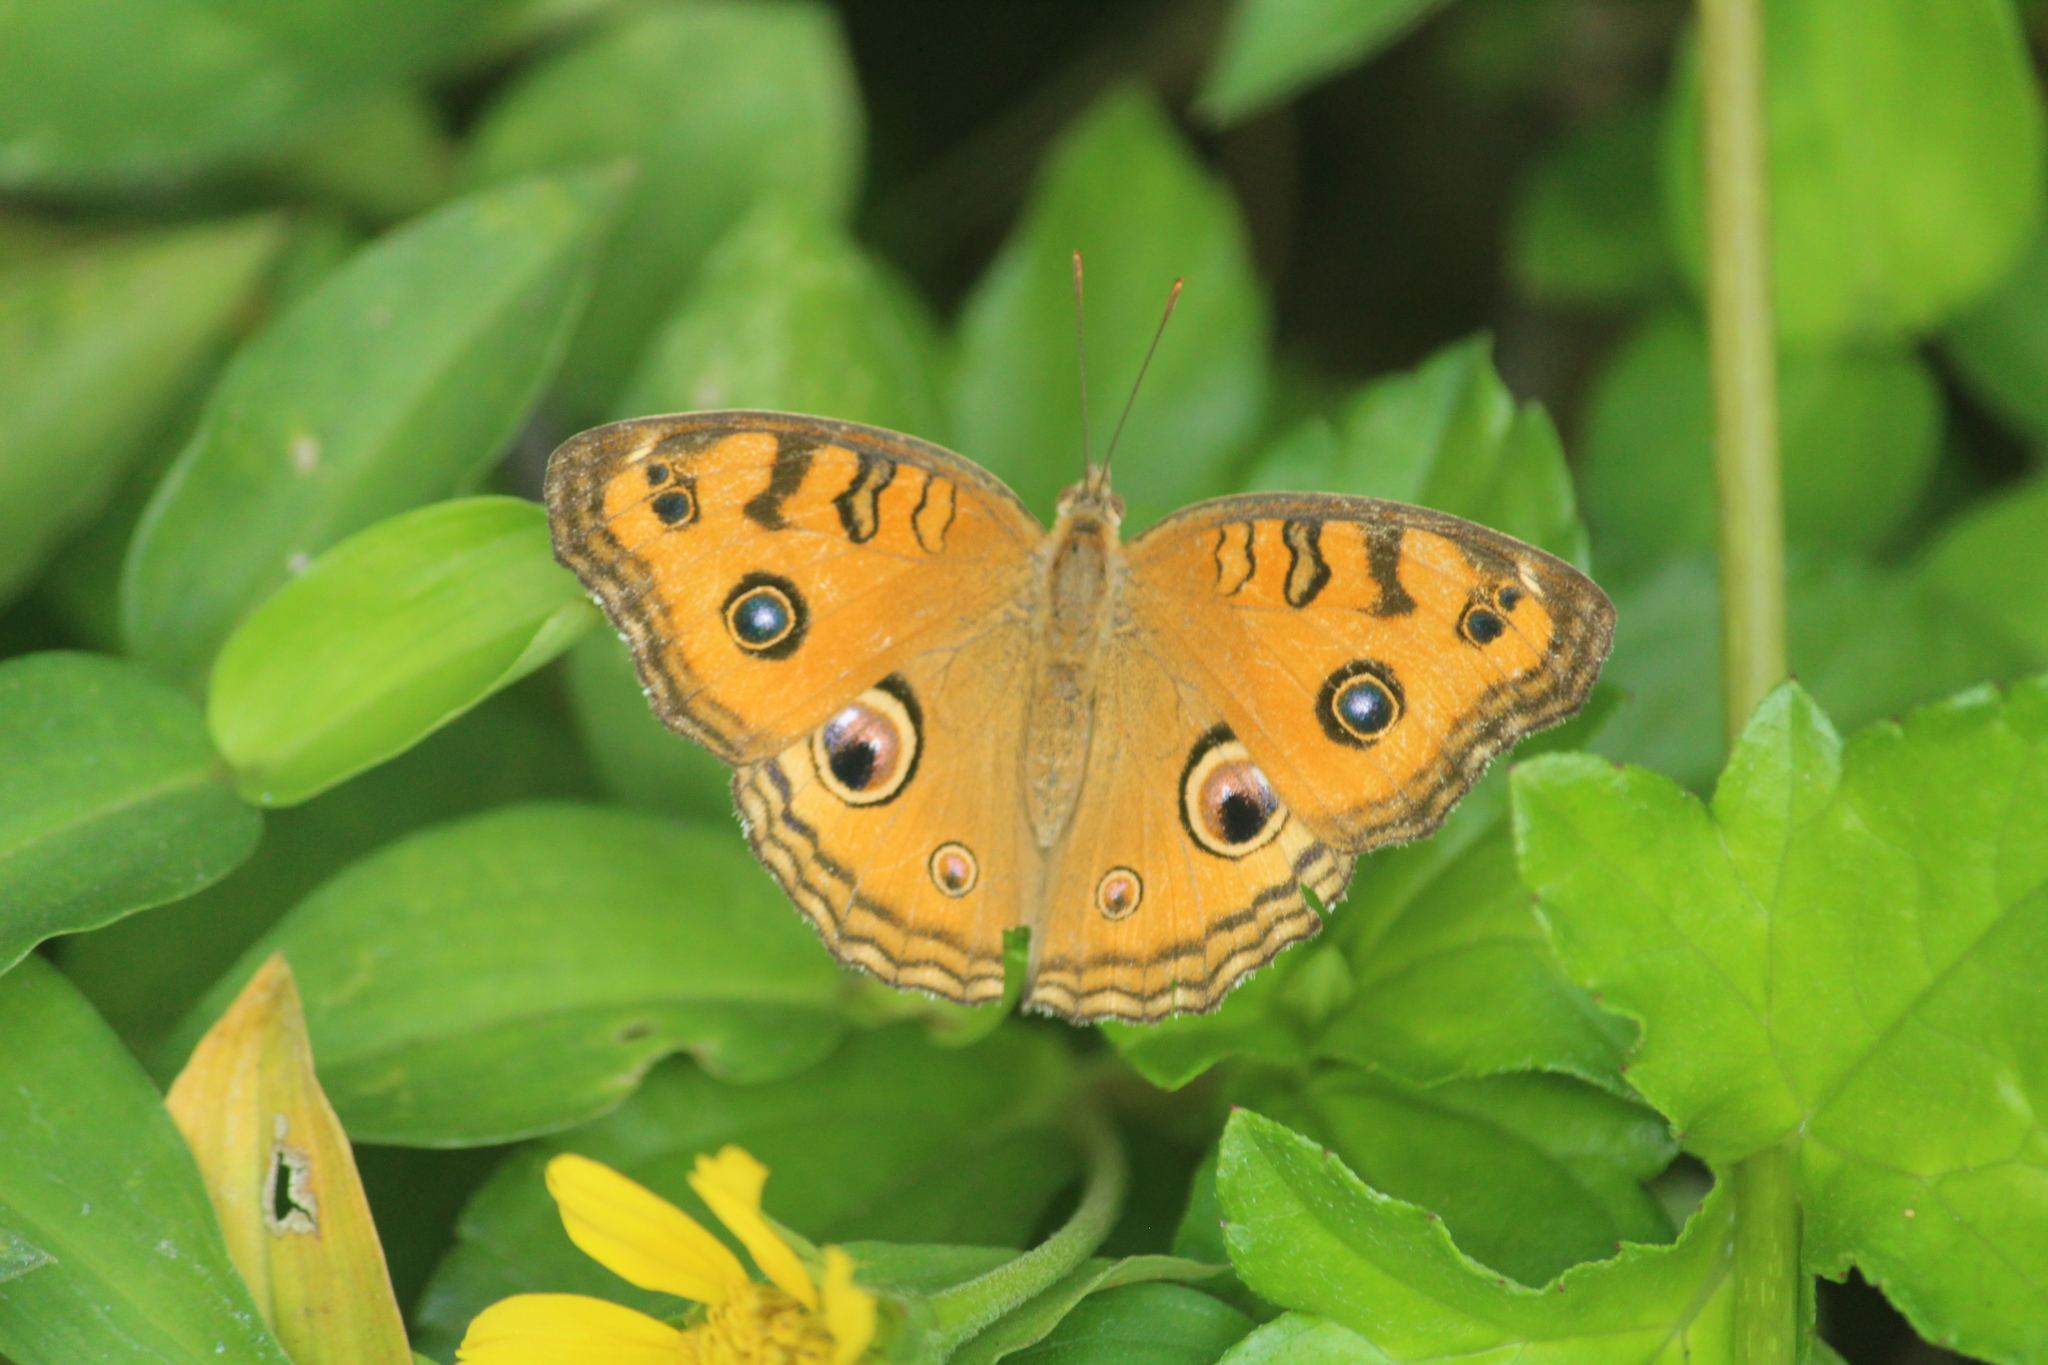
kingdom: Animalia
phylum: Arthropoda
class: Insecta
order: Lepidoptera
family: Nymphalidae
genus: Junonia
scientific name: Junonia almana
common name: Peacock pansy
